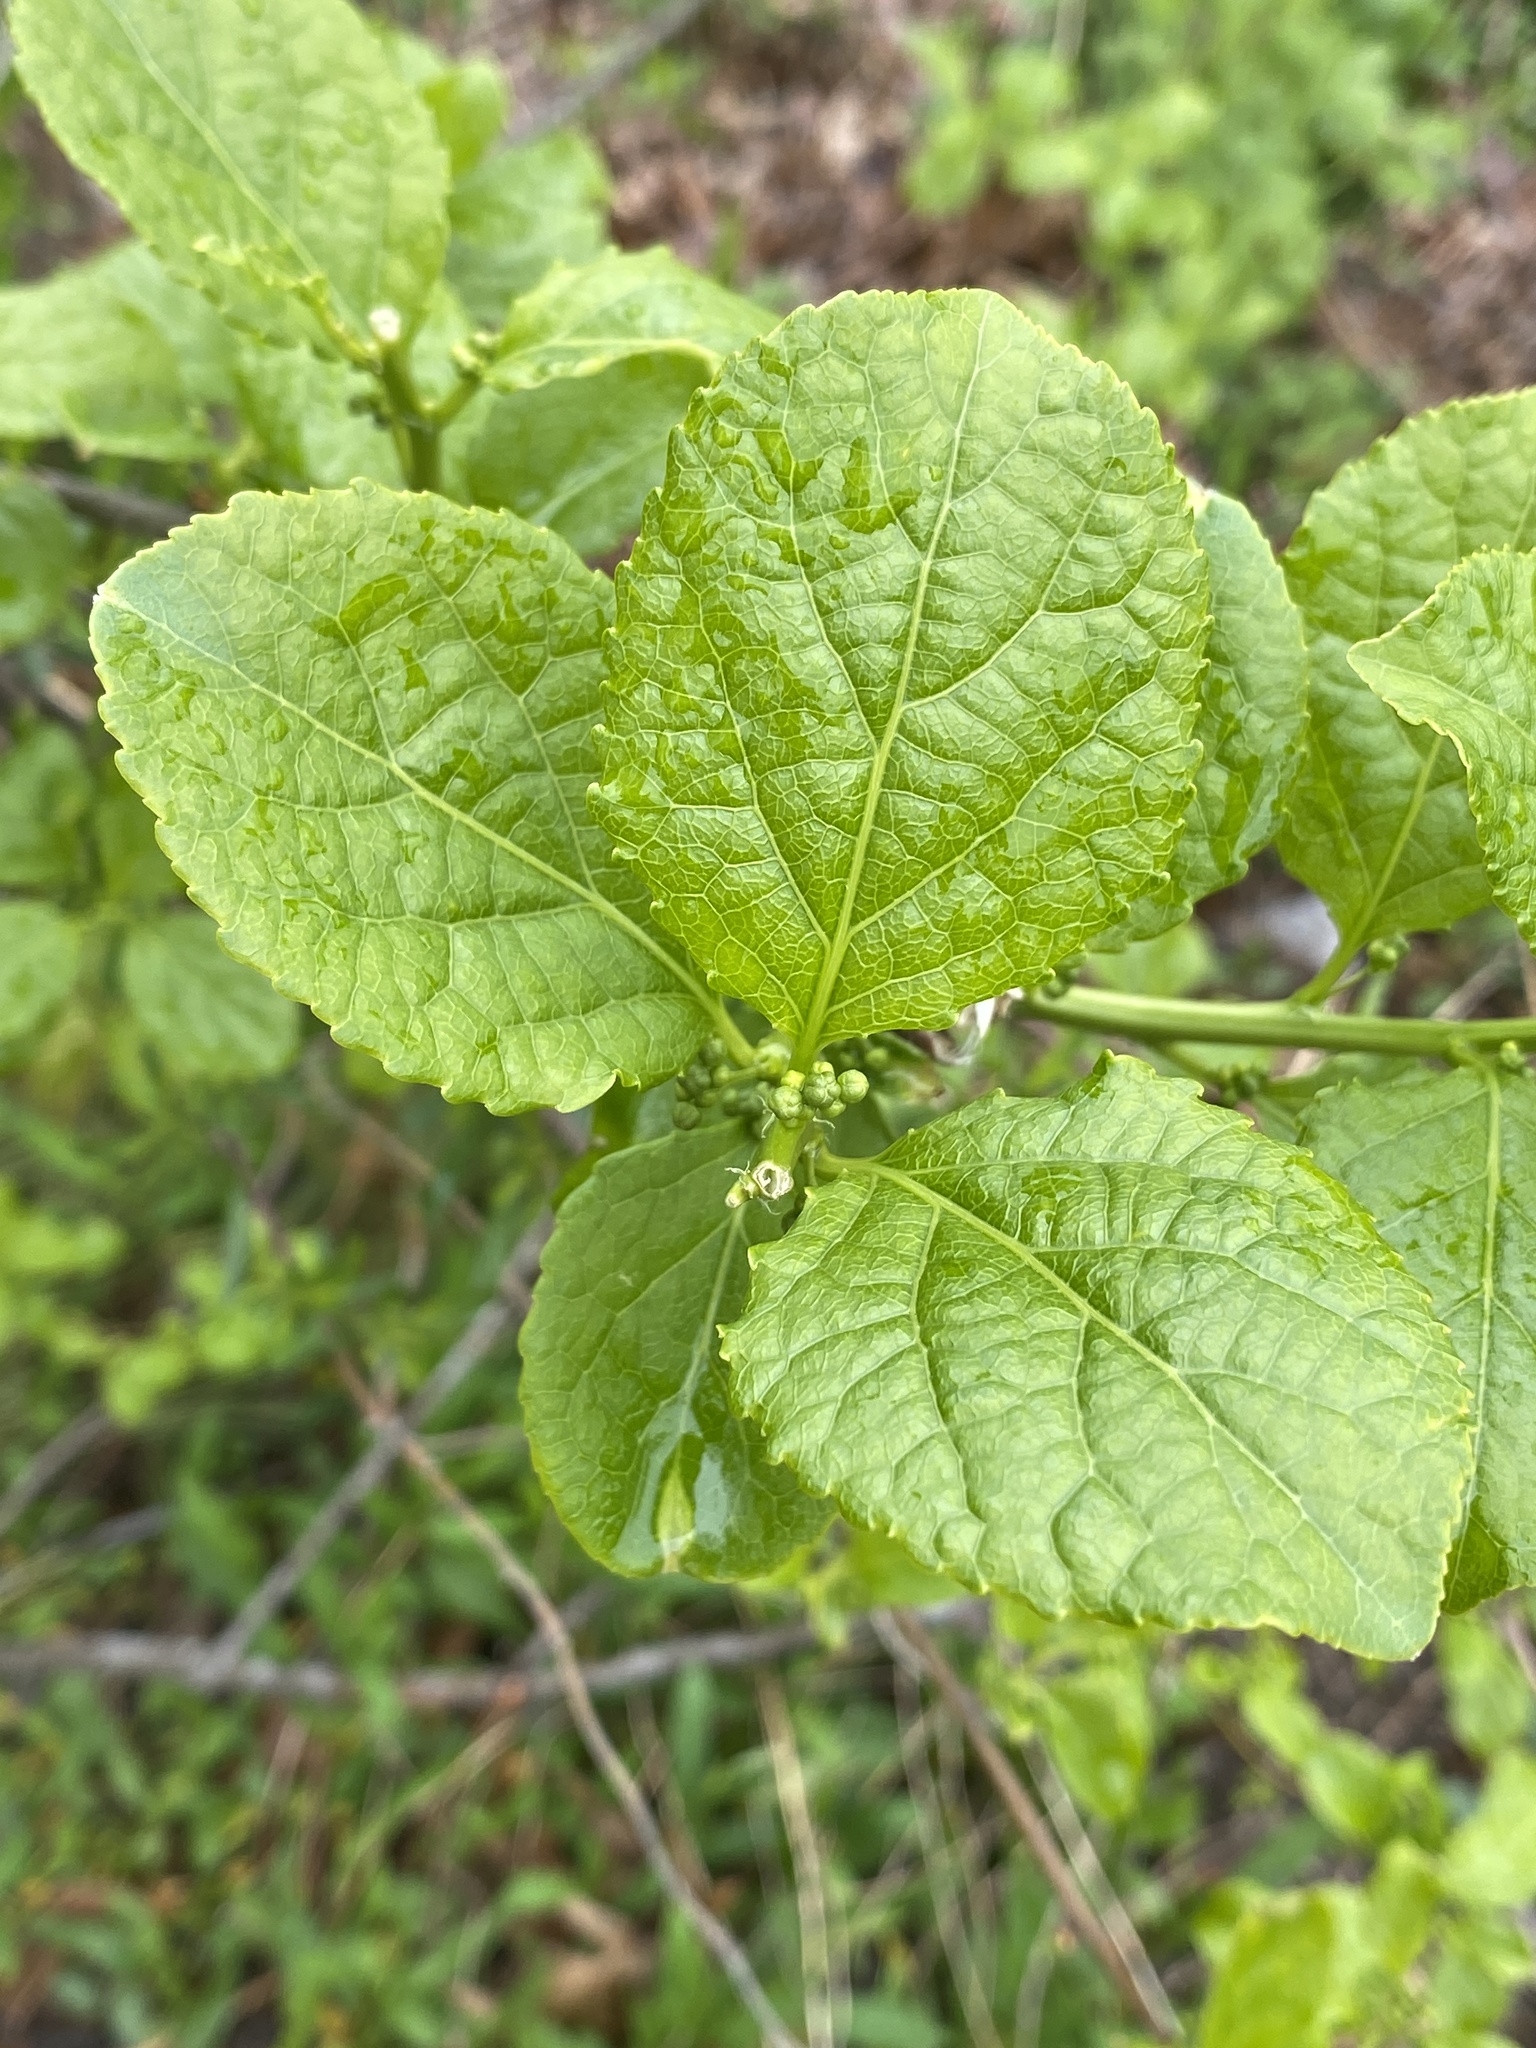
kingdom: Plantae
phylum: Tracheophyta
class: Magnoliopsida
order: Celastrales
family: Celastraceae
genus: Celastrus
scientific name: Celastrus orbiculatus
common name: Oriental bittersweet
